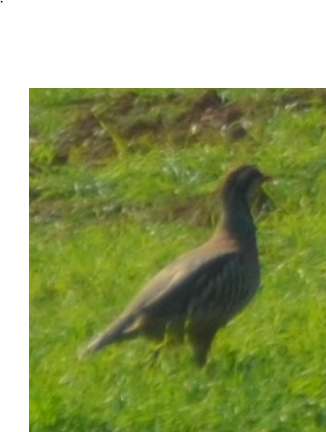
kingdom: Animalia
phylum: Chordata
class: Aves
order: Galliformes
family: Phasianidae
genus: Alectoris
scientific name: Alectoris rufa
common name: Red-legged partridge
